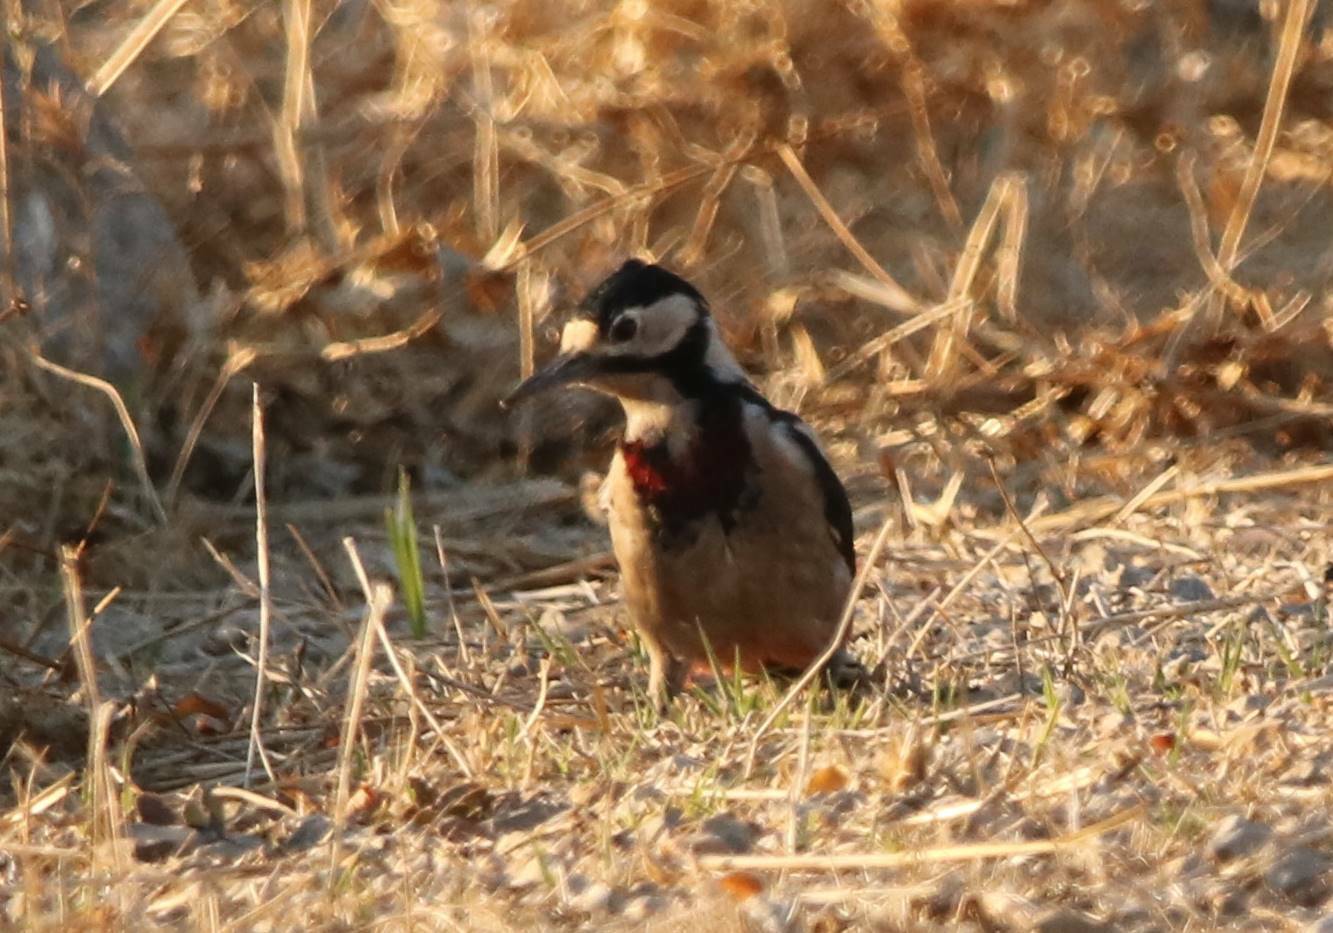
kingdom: Animalia
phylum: Chordata
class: Aves
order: Piciformes
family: Picidae
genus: Dendrocopos
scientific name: Dendrocopos major
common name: Great spotted woodpecker
